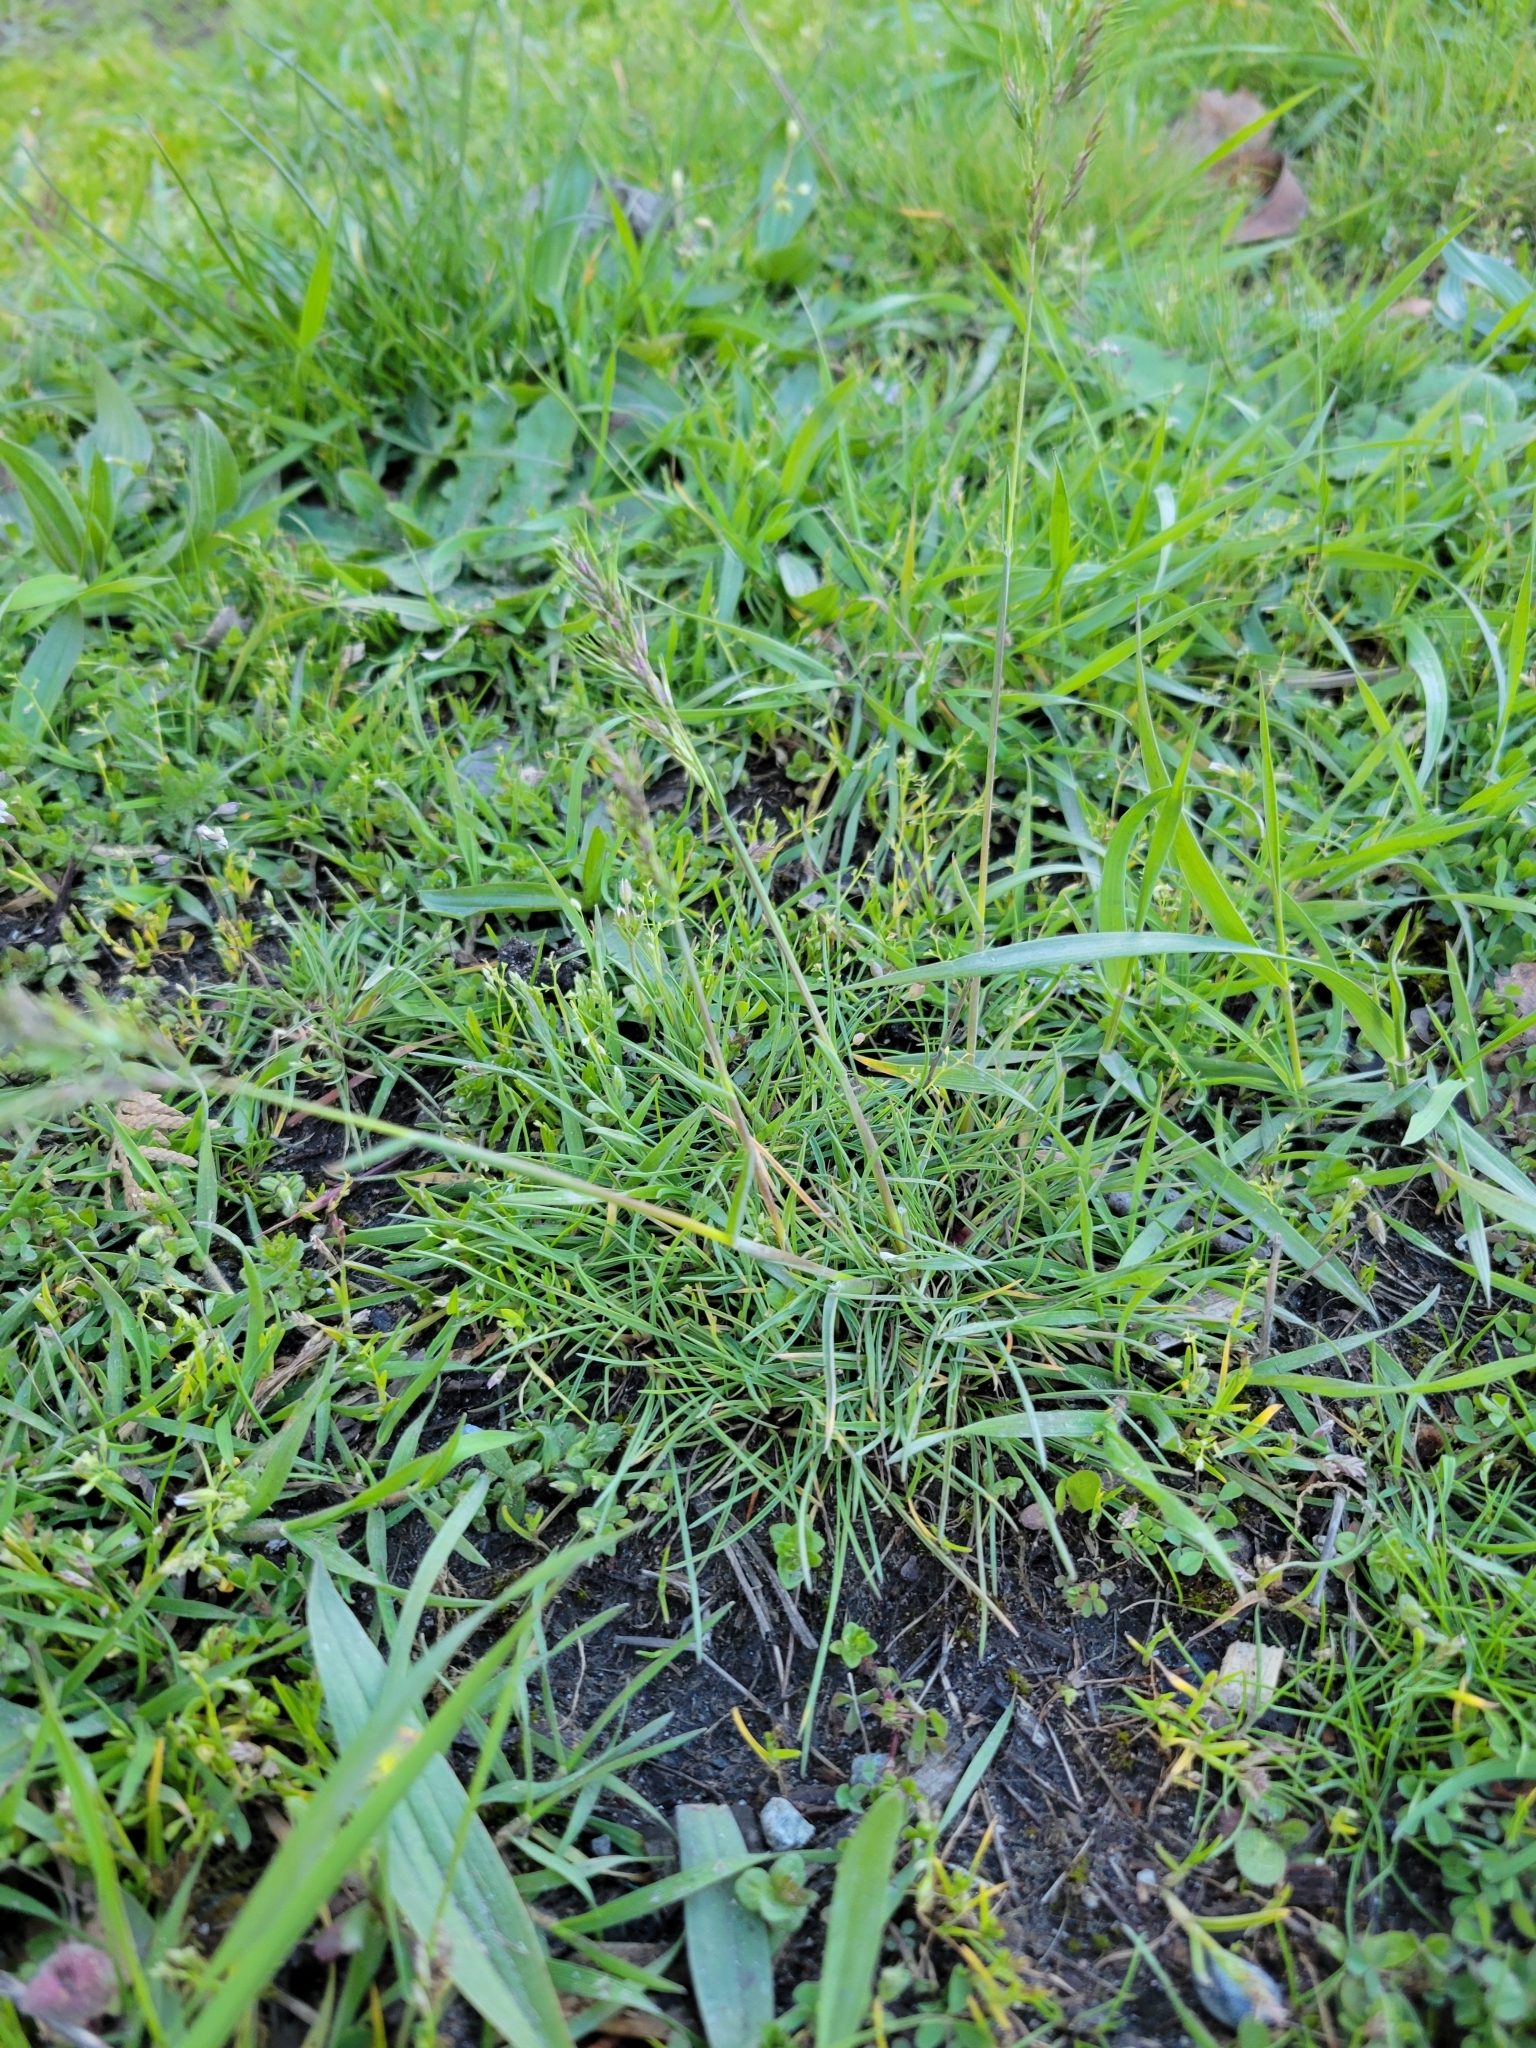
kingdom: Plantae
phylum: Tracheophyta
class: Liliopsida
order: Poales
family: Poaceae
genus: Poa
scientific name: Poa bulbosa
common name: Bulbous bluegrass
